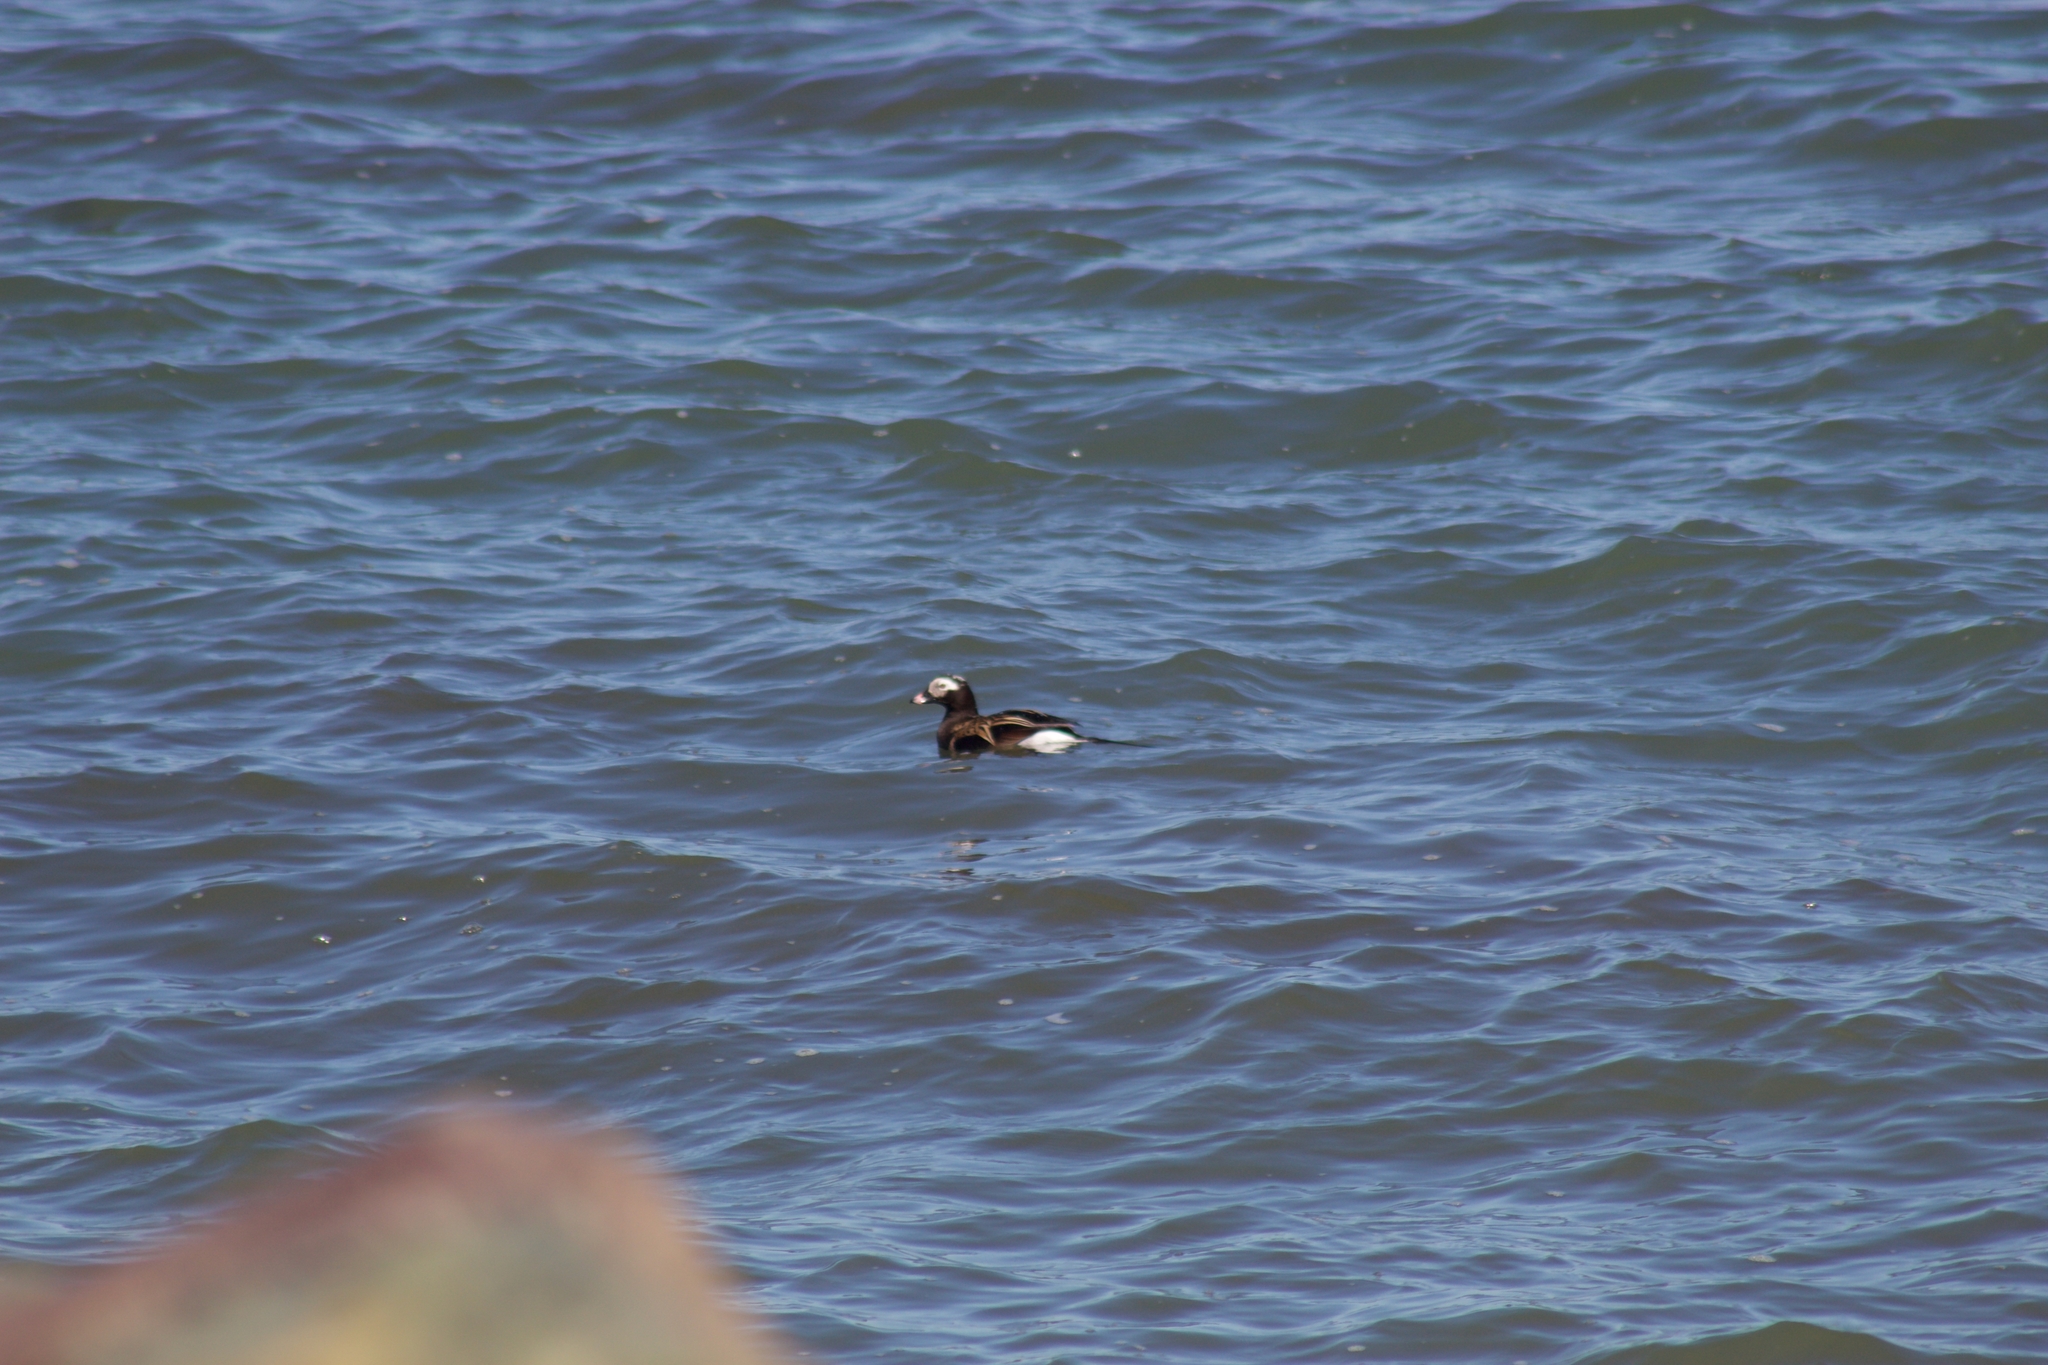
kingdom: Animalia
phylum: Chordata
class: Aves
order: Anseriformes
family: Anatidae
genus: Clangula
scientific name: Clangula hyemalis
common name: Long-tailed duck
